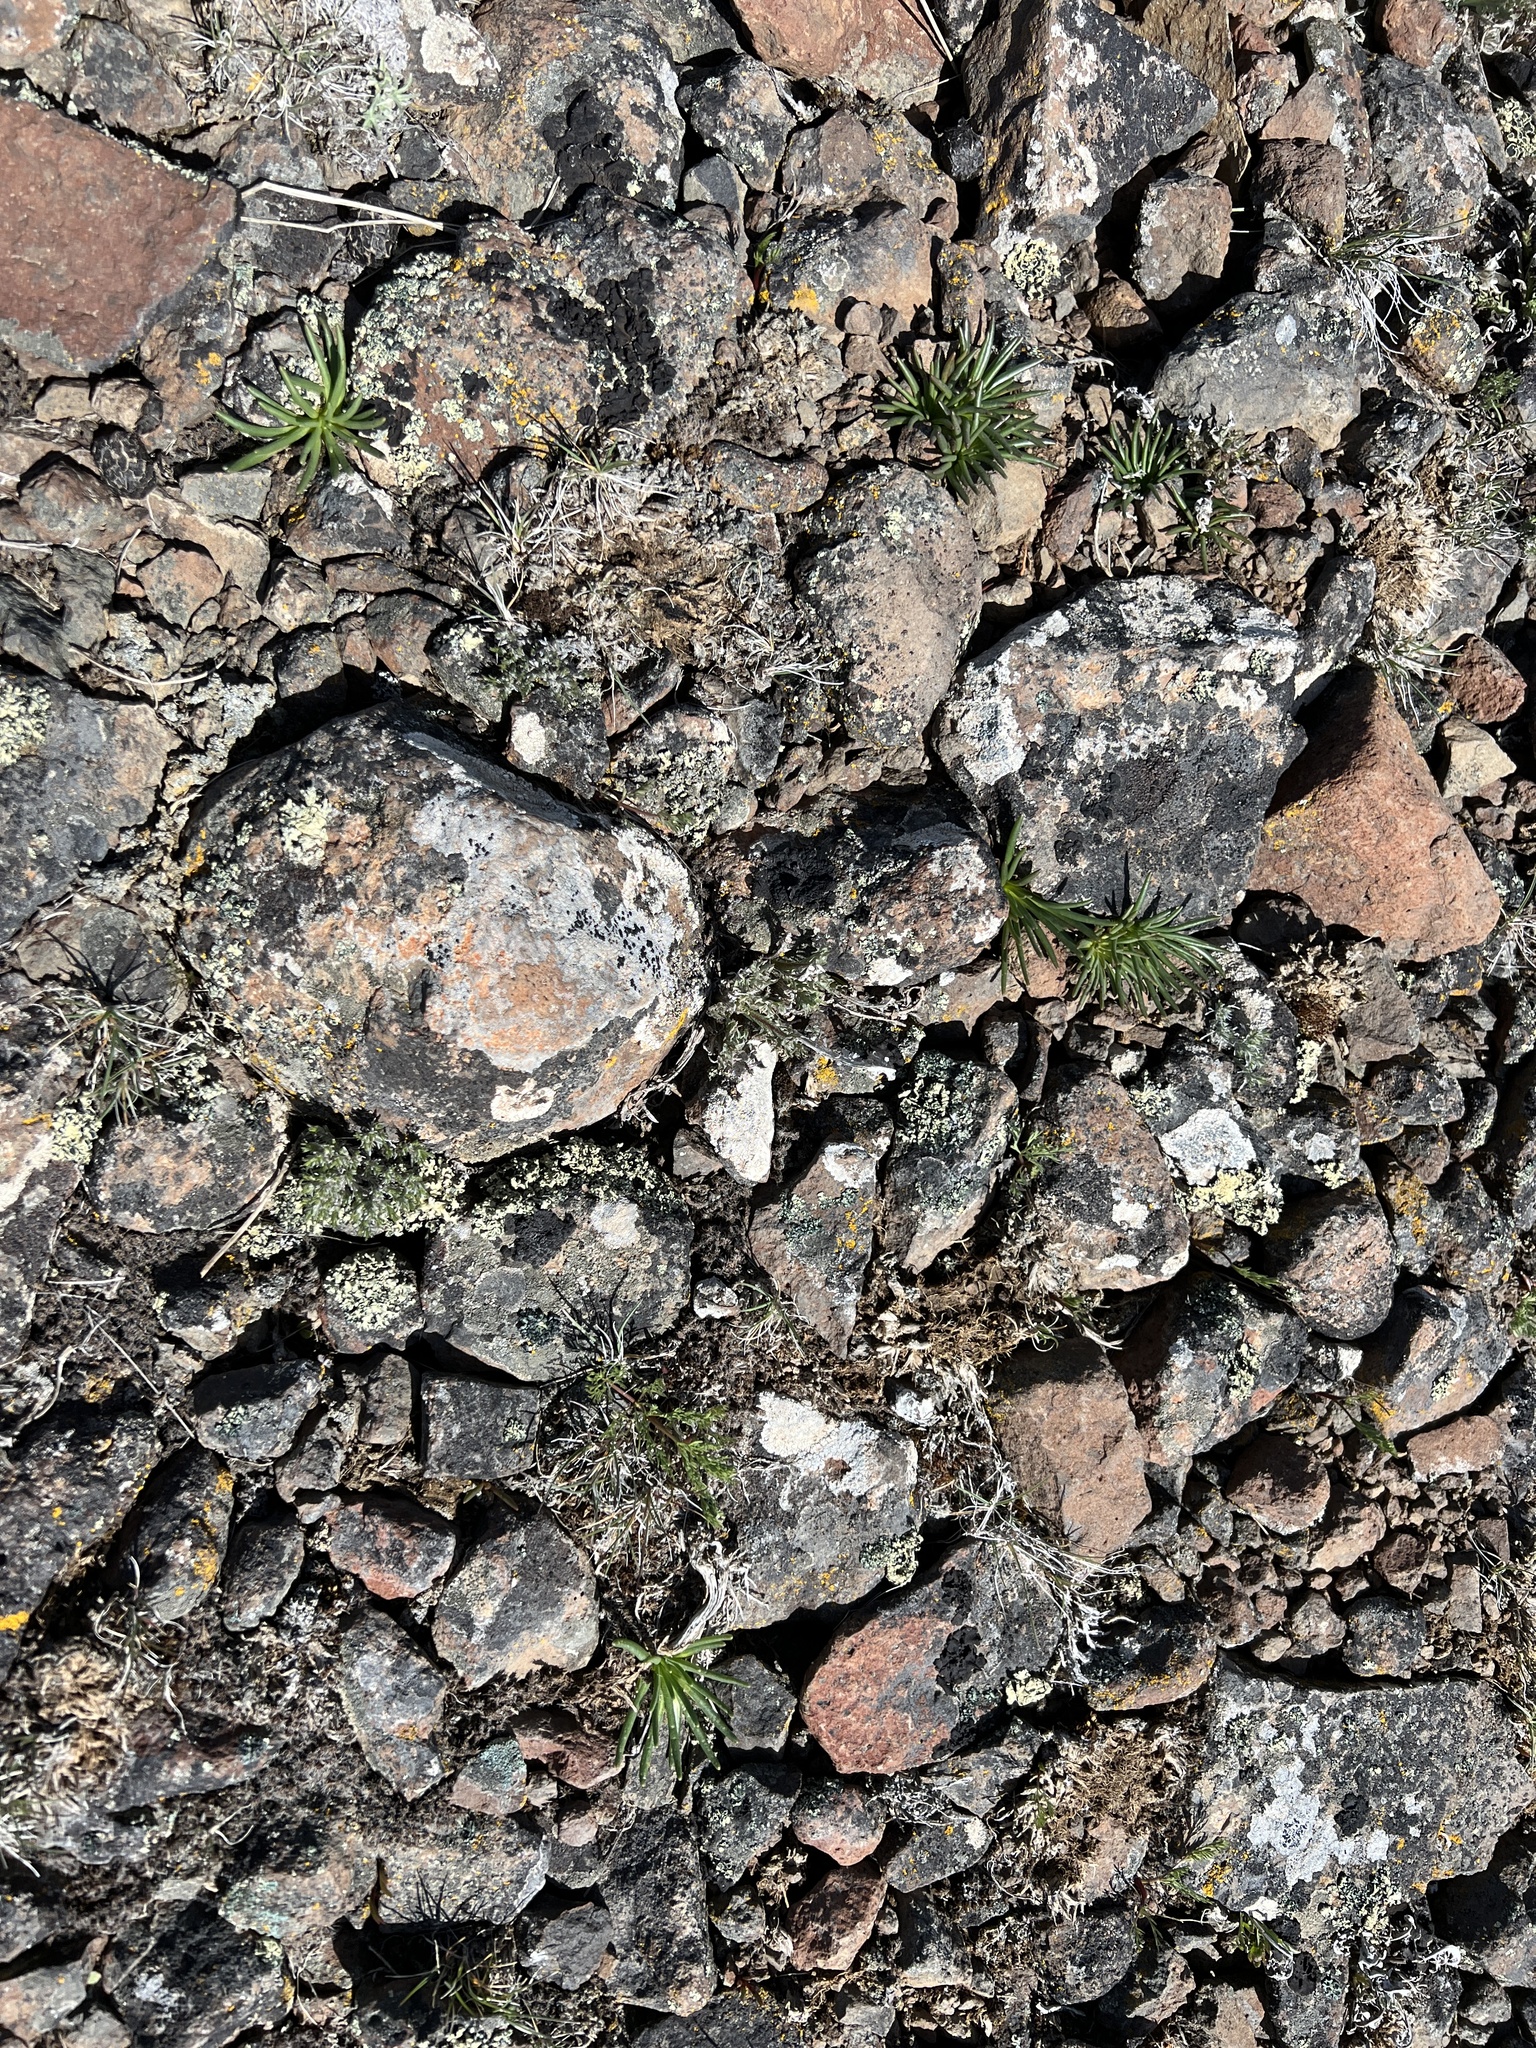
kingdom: Plantae
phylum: Tracheophyta
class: Magnoliopsida
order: Caryophyllales
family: Montiaceae
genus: Lewisia
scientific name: Lewisia rediviva
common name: Bitter-root
